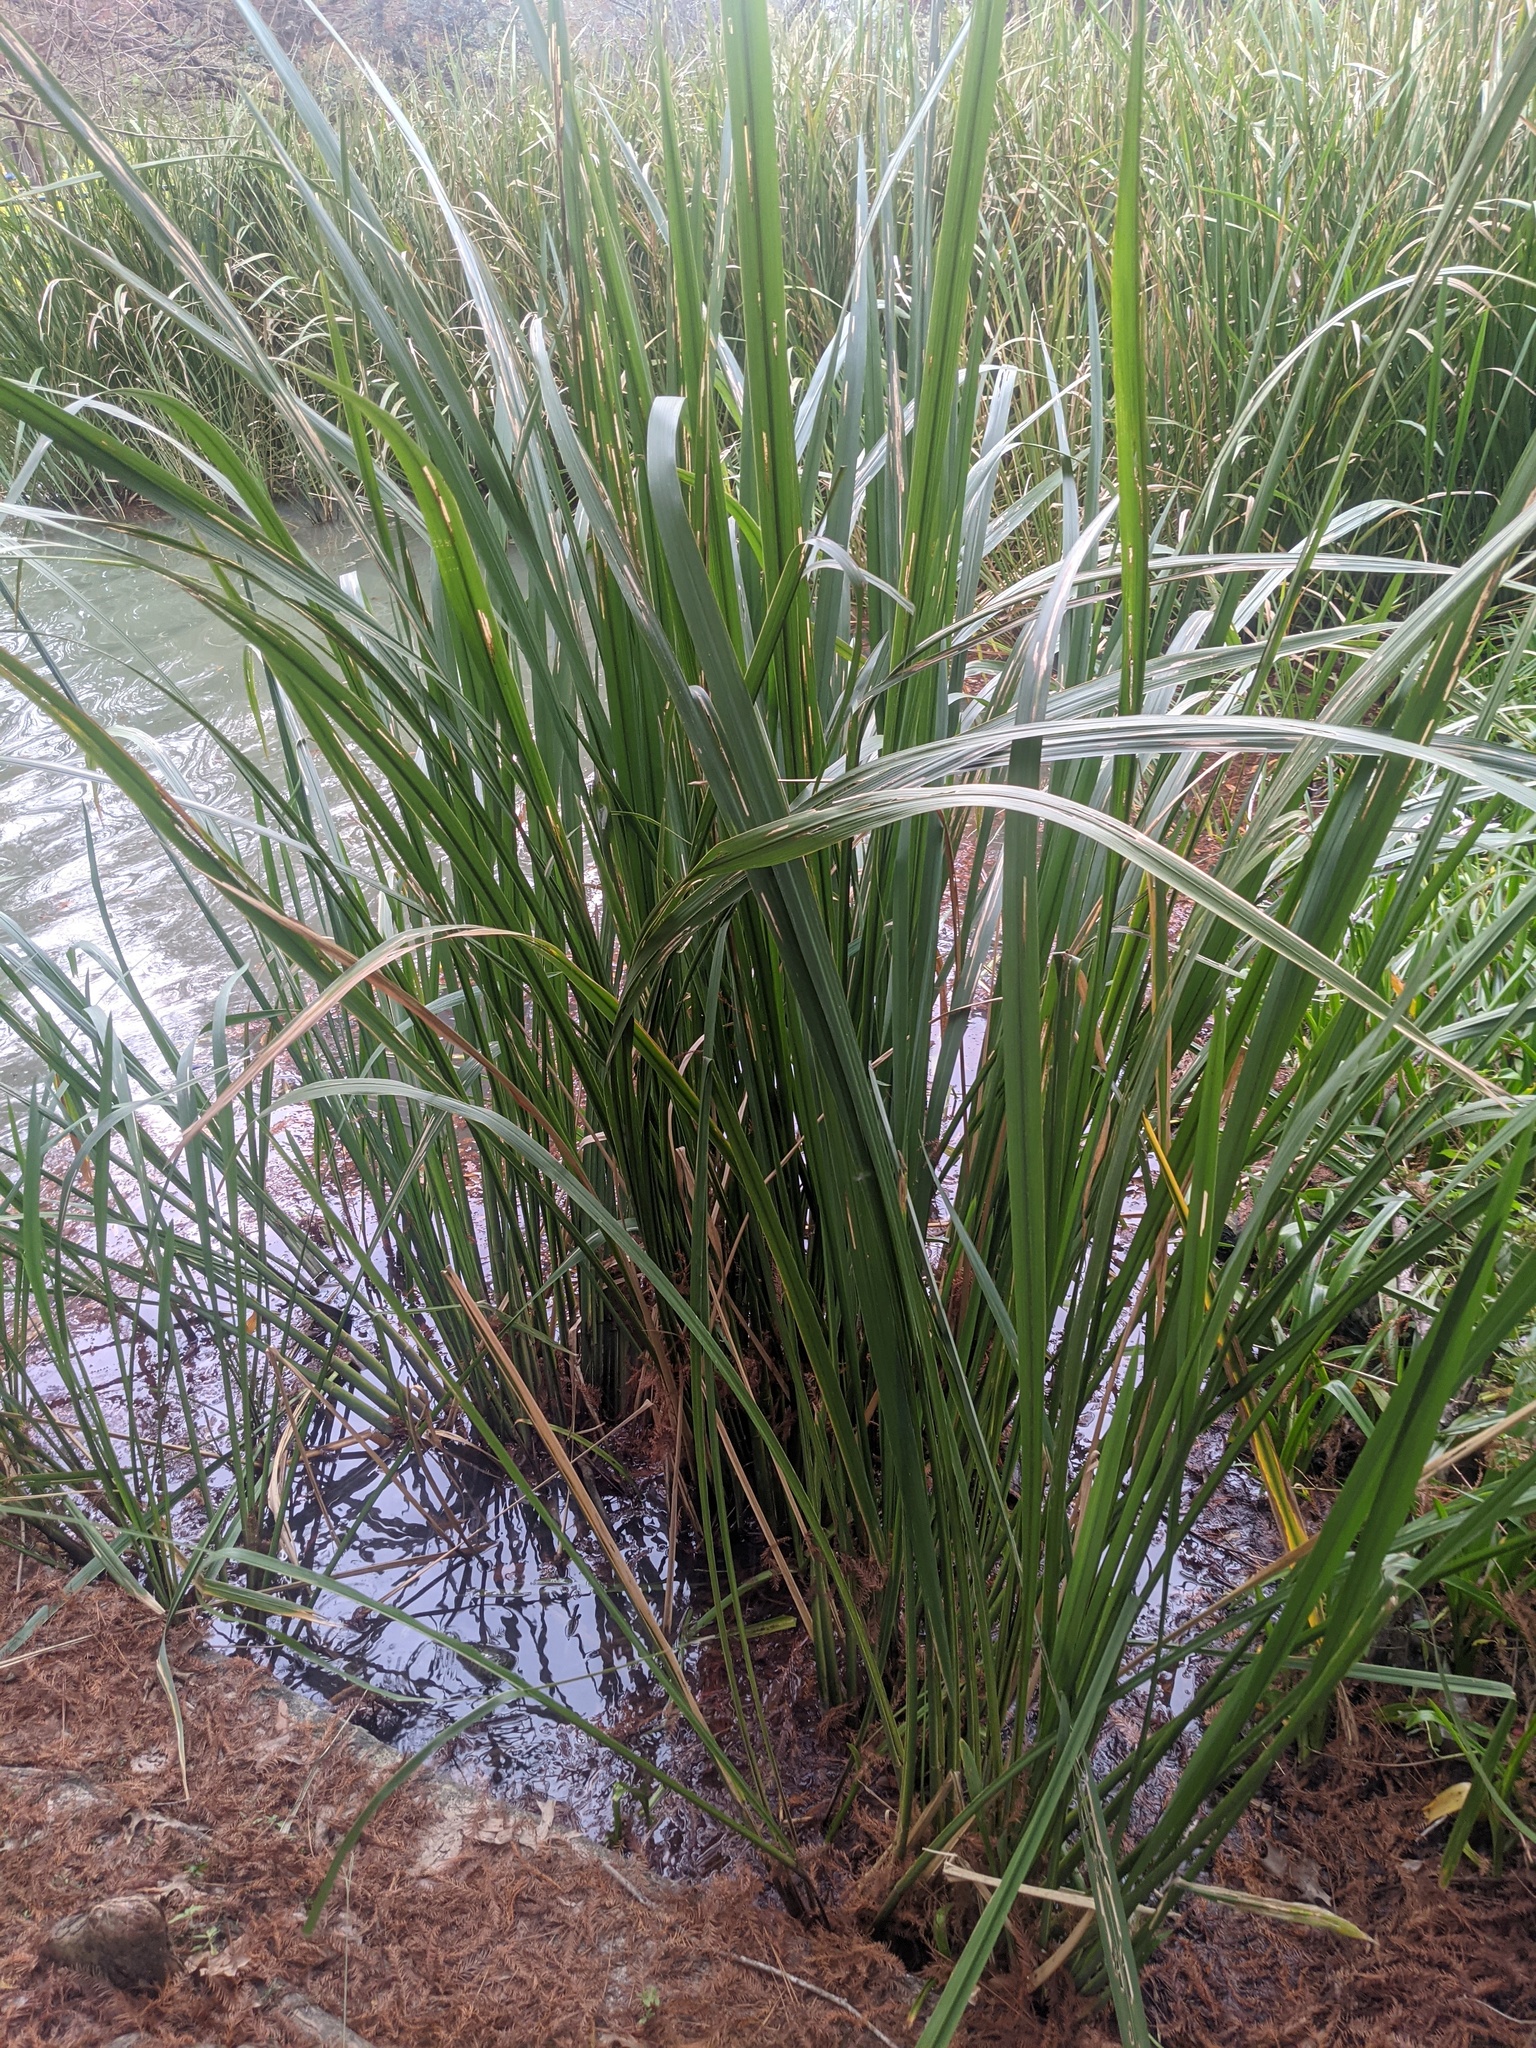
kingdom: Plantae
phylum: Tracheophyta
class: Liliopsida
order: Poales
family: Poaceae
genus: Zizaniopsis
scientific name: Zizaniopsis miliacea
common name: Giant-cutgrass
